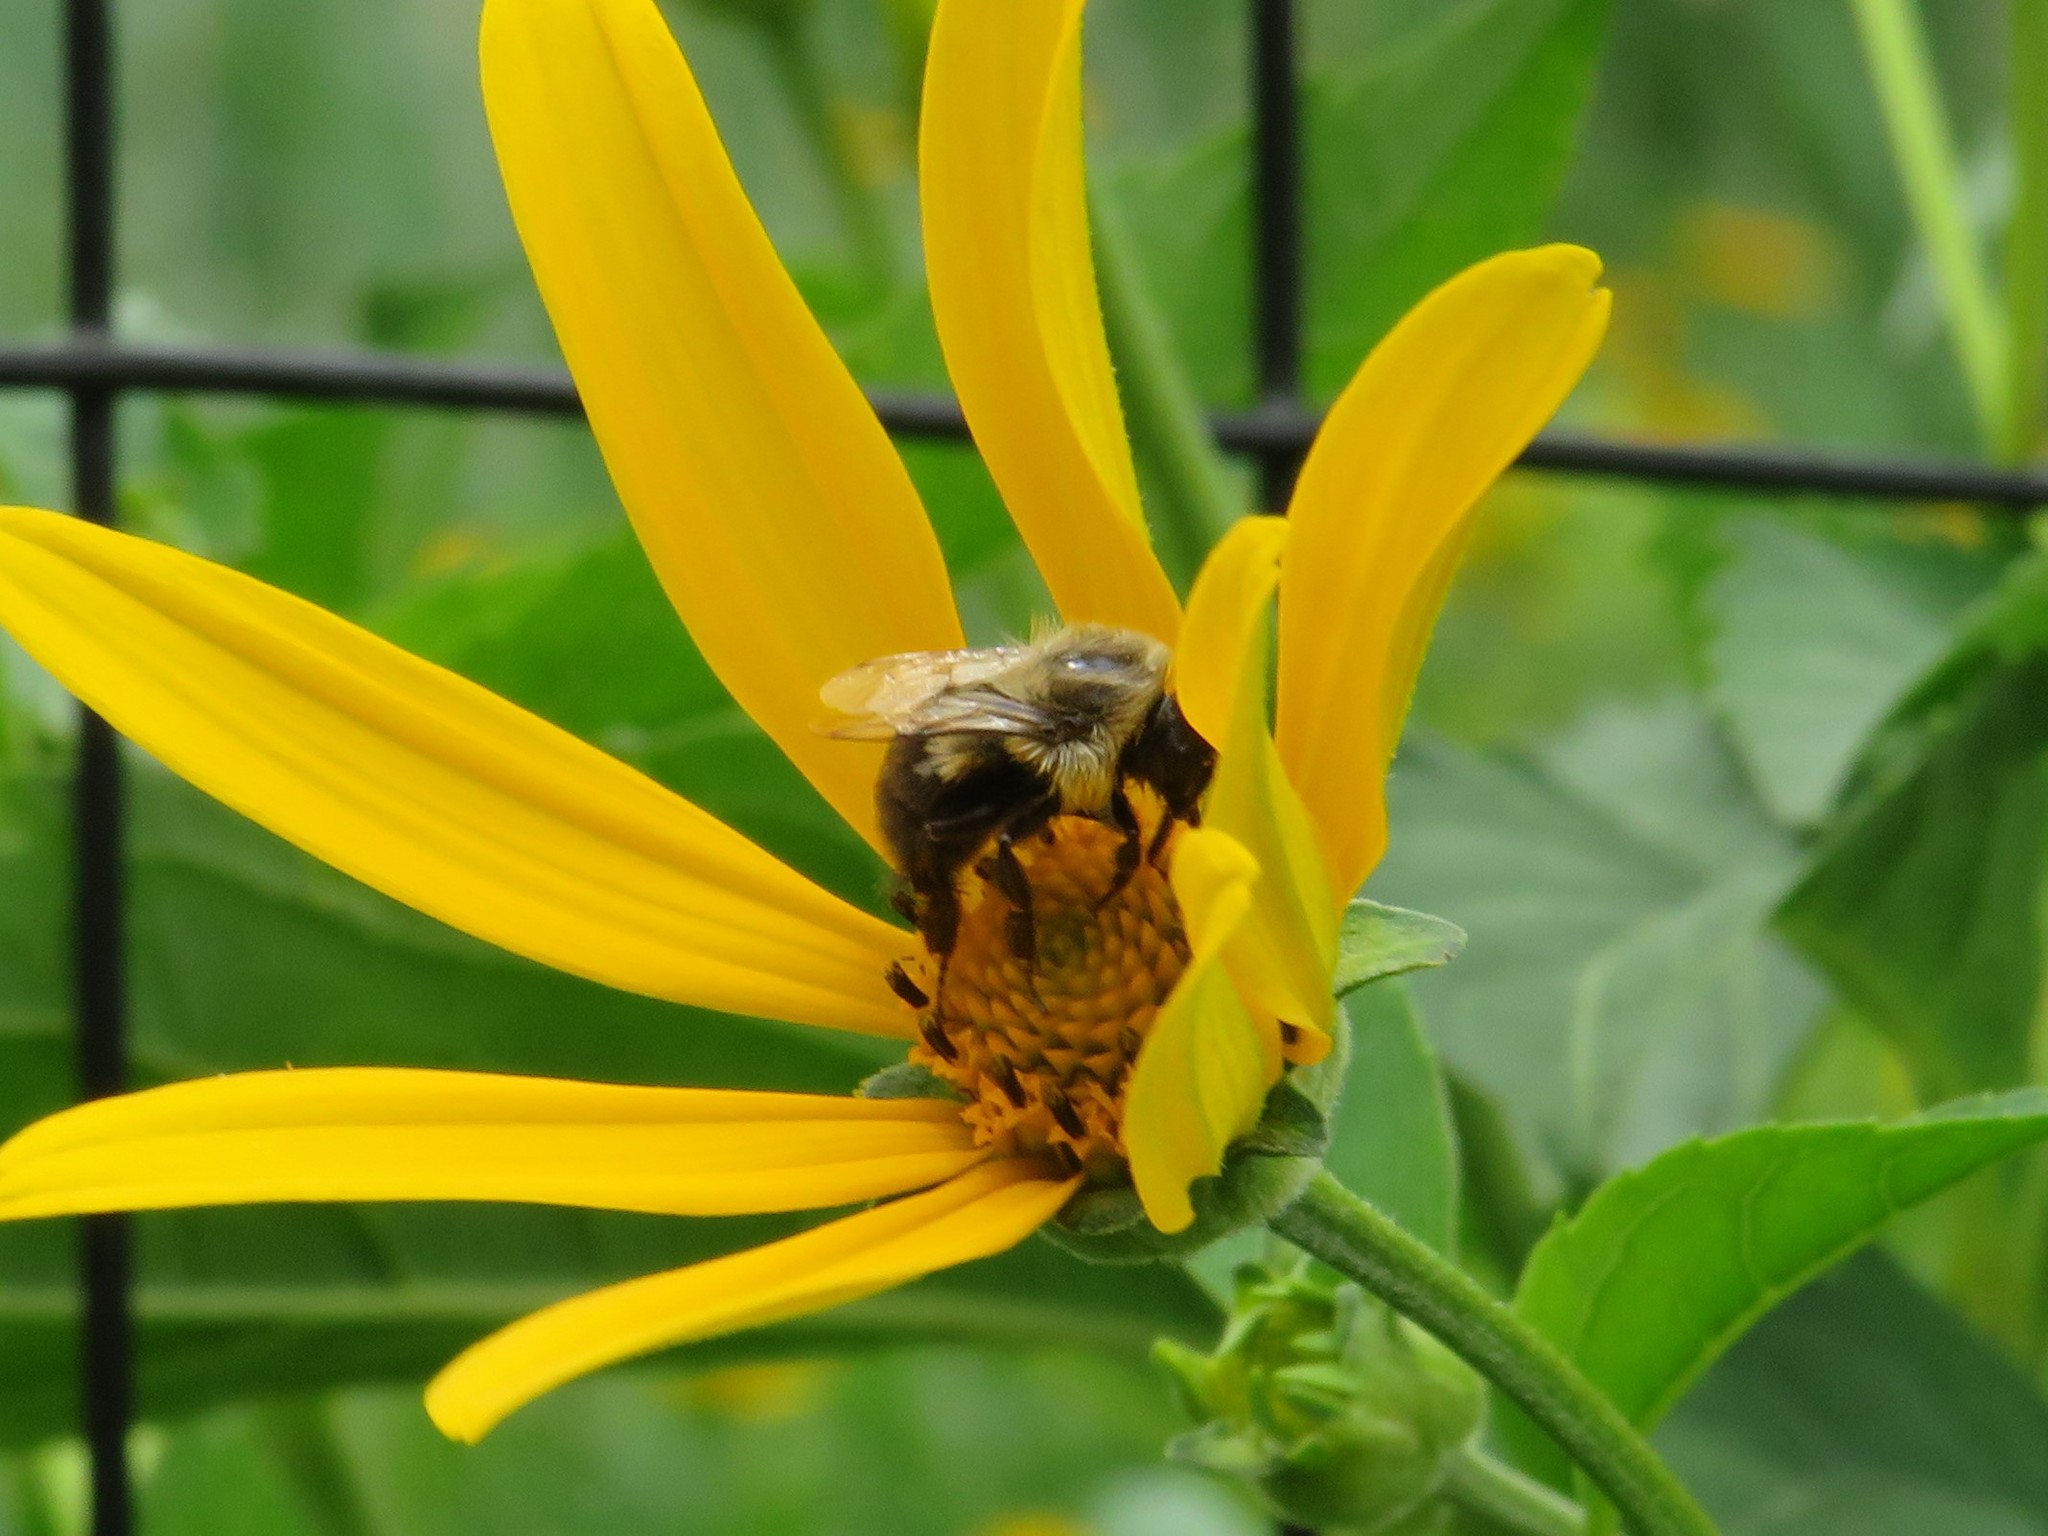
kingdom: Animalia
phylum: Arthropoda
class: Insecta
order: Hymenoptera
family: Apidae
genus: Bombus
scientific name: Bombus impatiens
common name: Common eastern bumble bee
